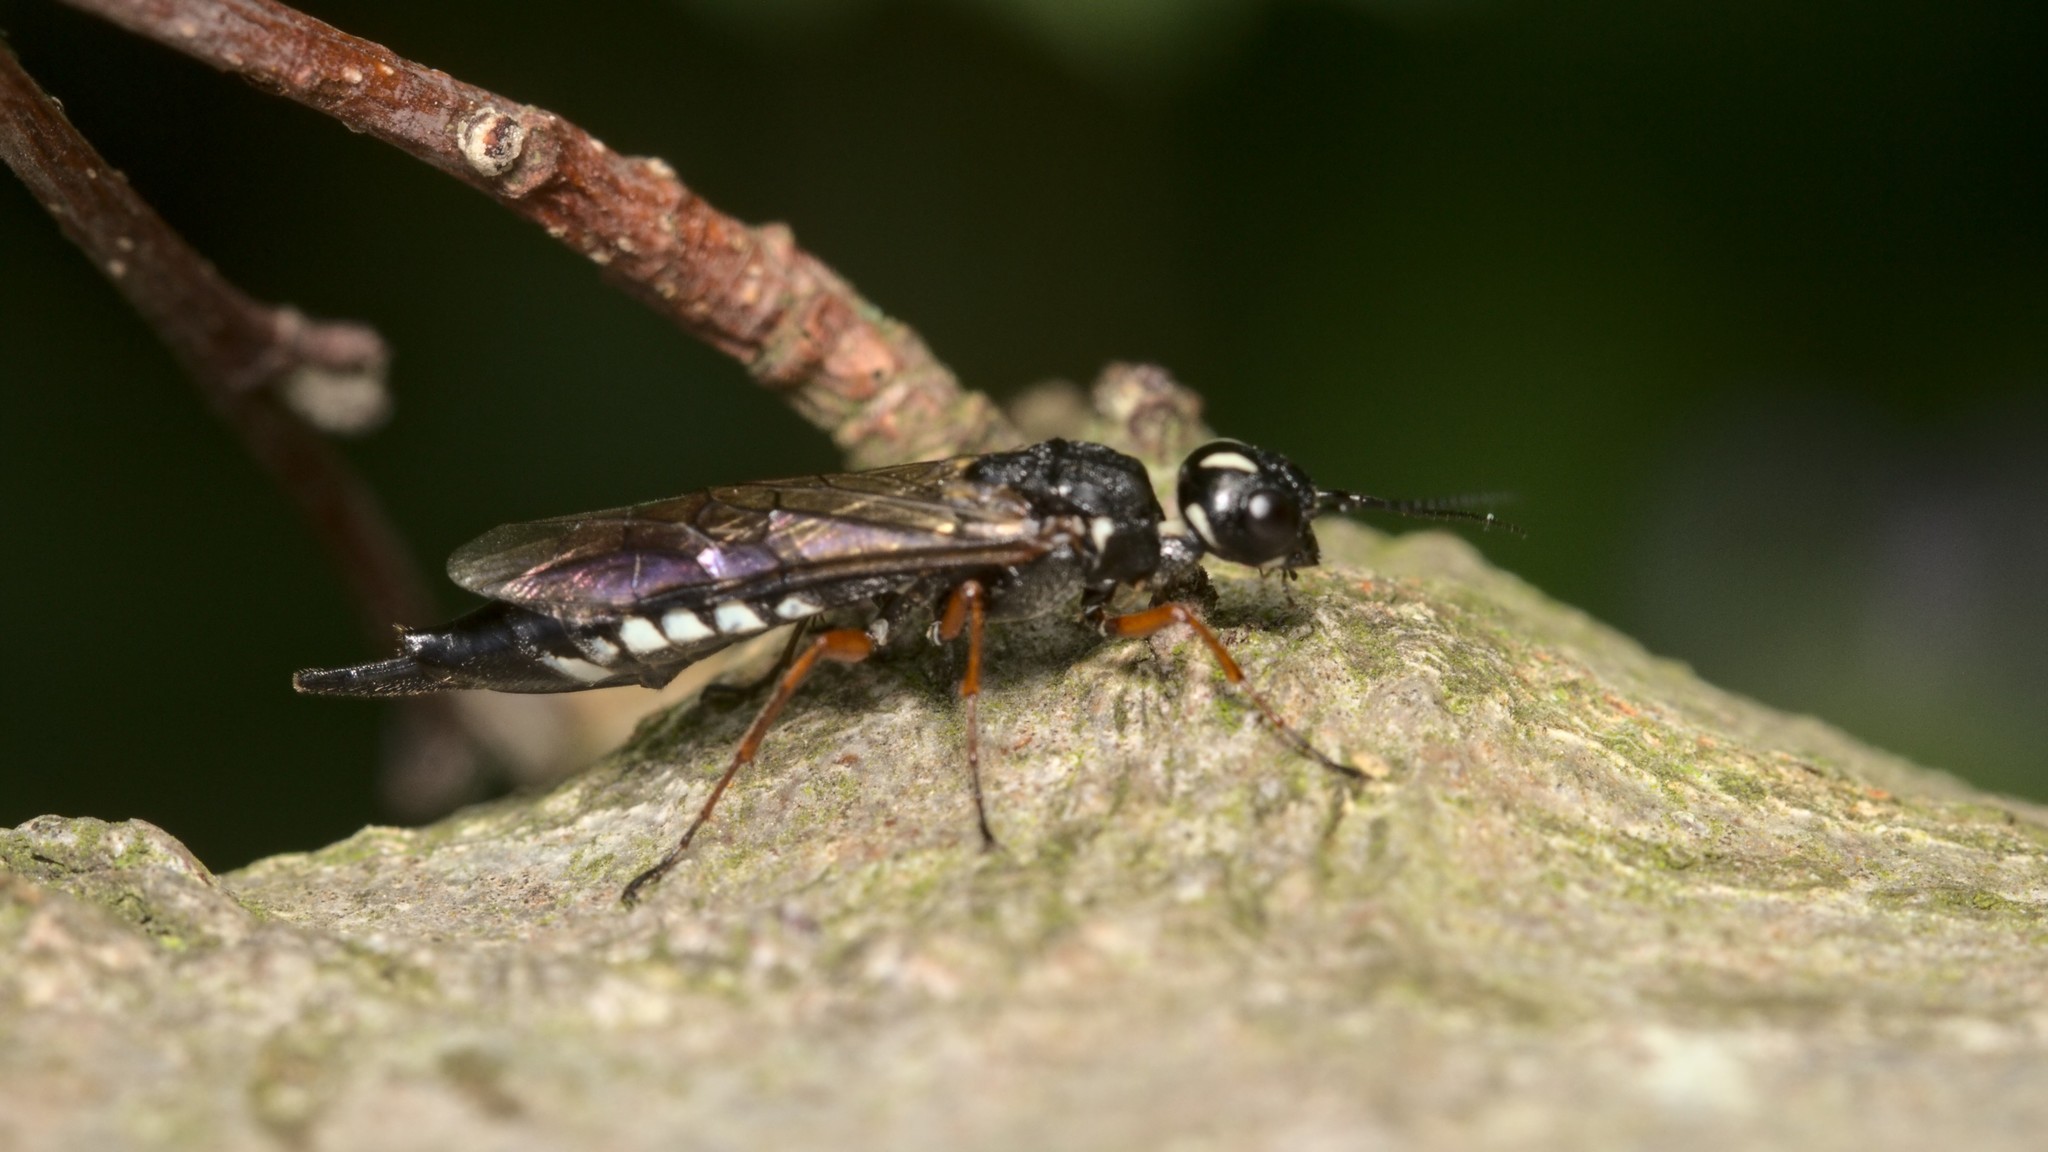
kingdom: Animalia
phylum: Arthropoda
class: Insecta
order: Hymenoptera
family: Xiphydriidae
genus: Xiphydria
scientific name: Xiphydria camelus
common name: Alder wood-wasp
